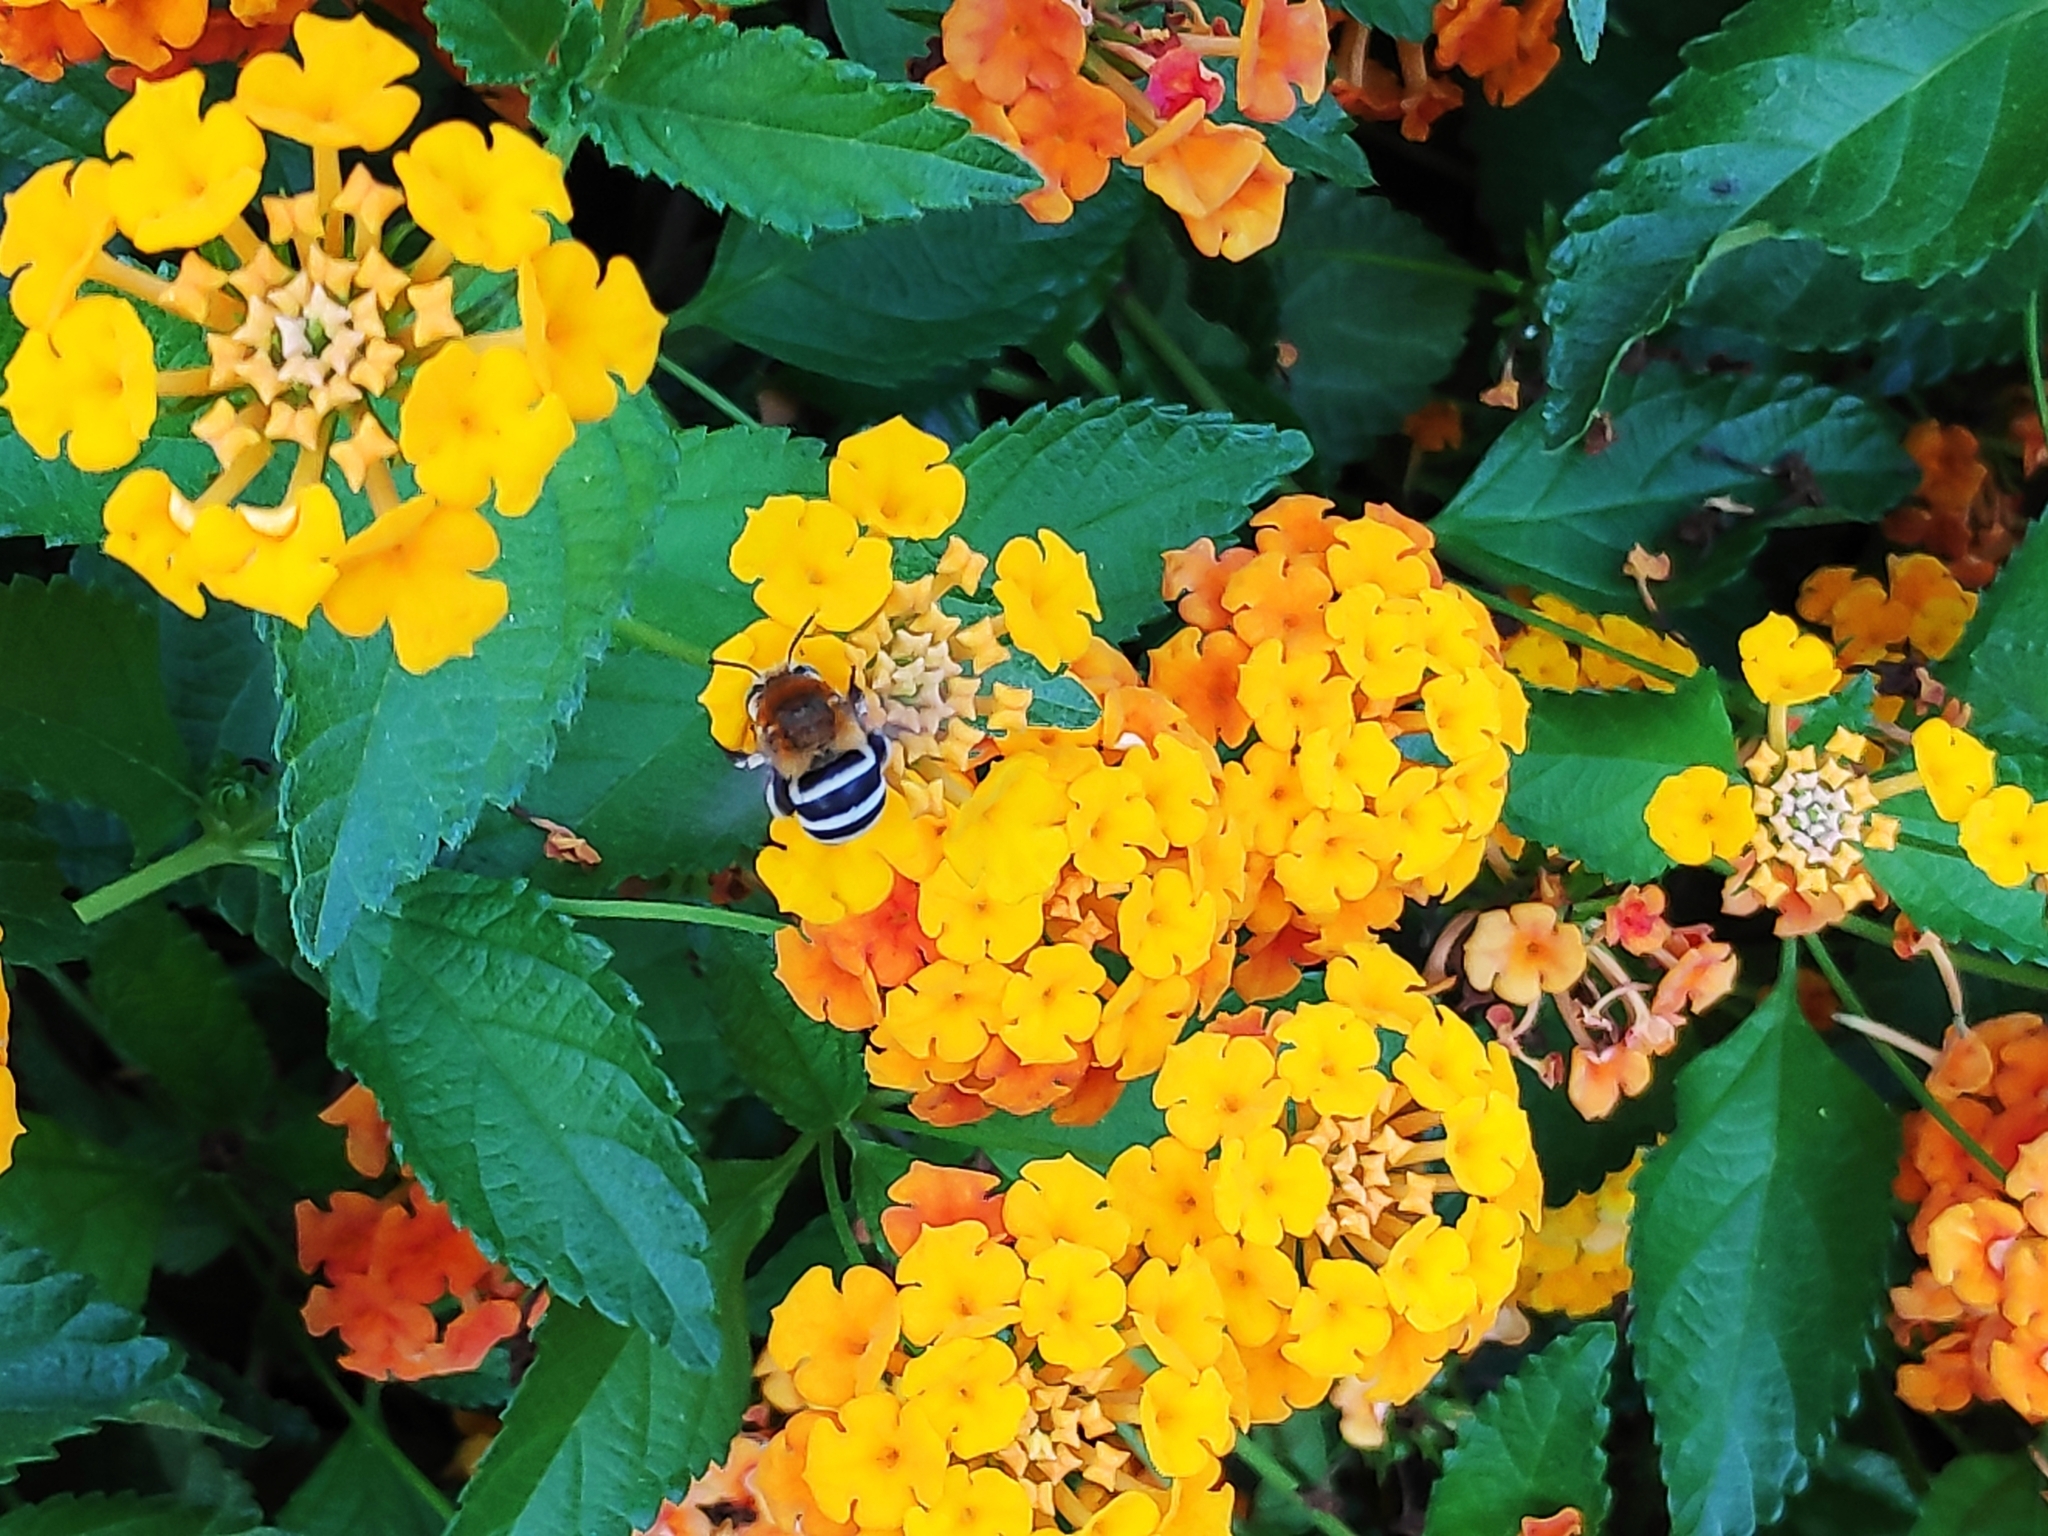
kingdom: Animalia
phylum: Arthropoda
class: Insecta
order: Hymenoptera
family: Apidae
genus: Amegilla
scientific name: Amegilla quadrifasciata
